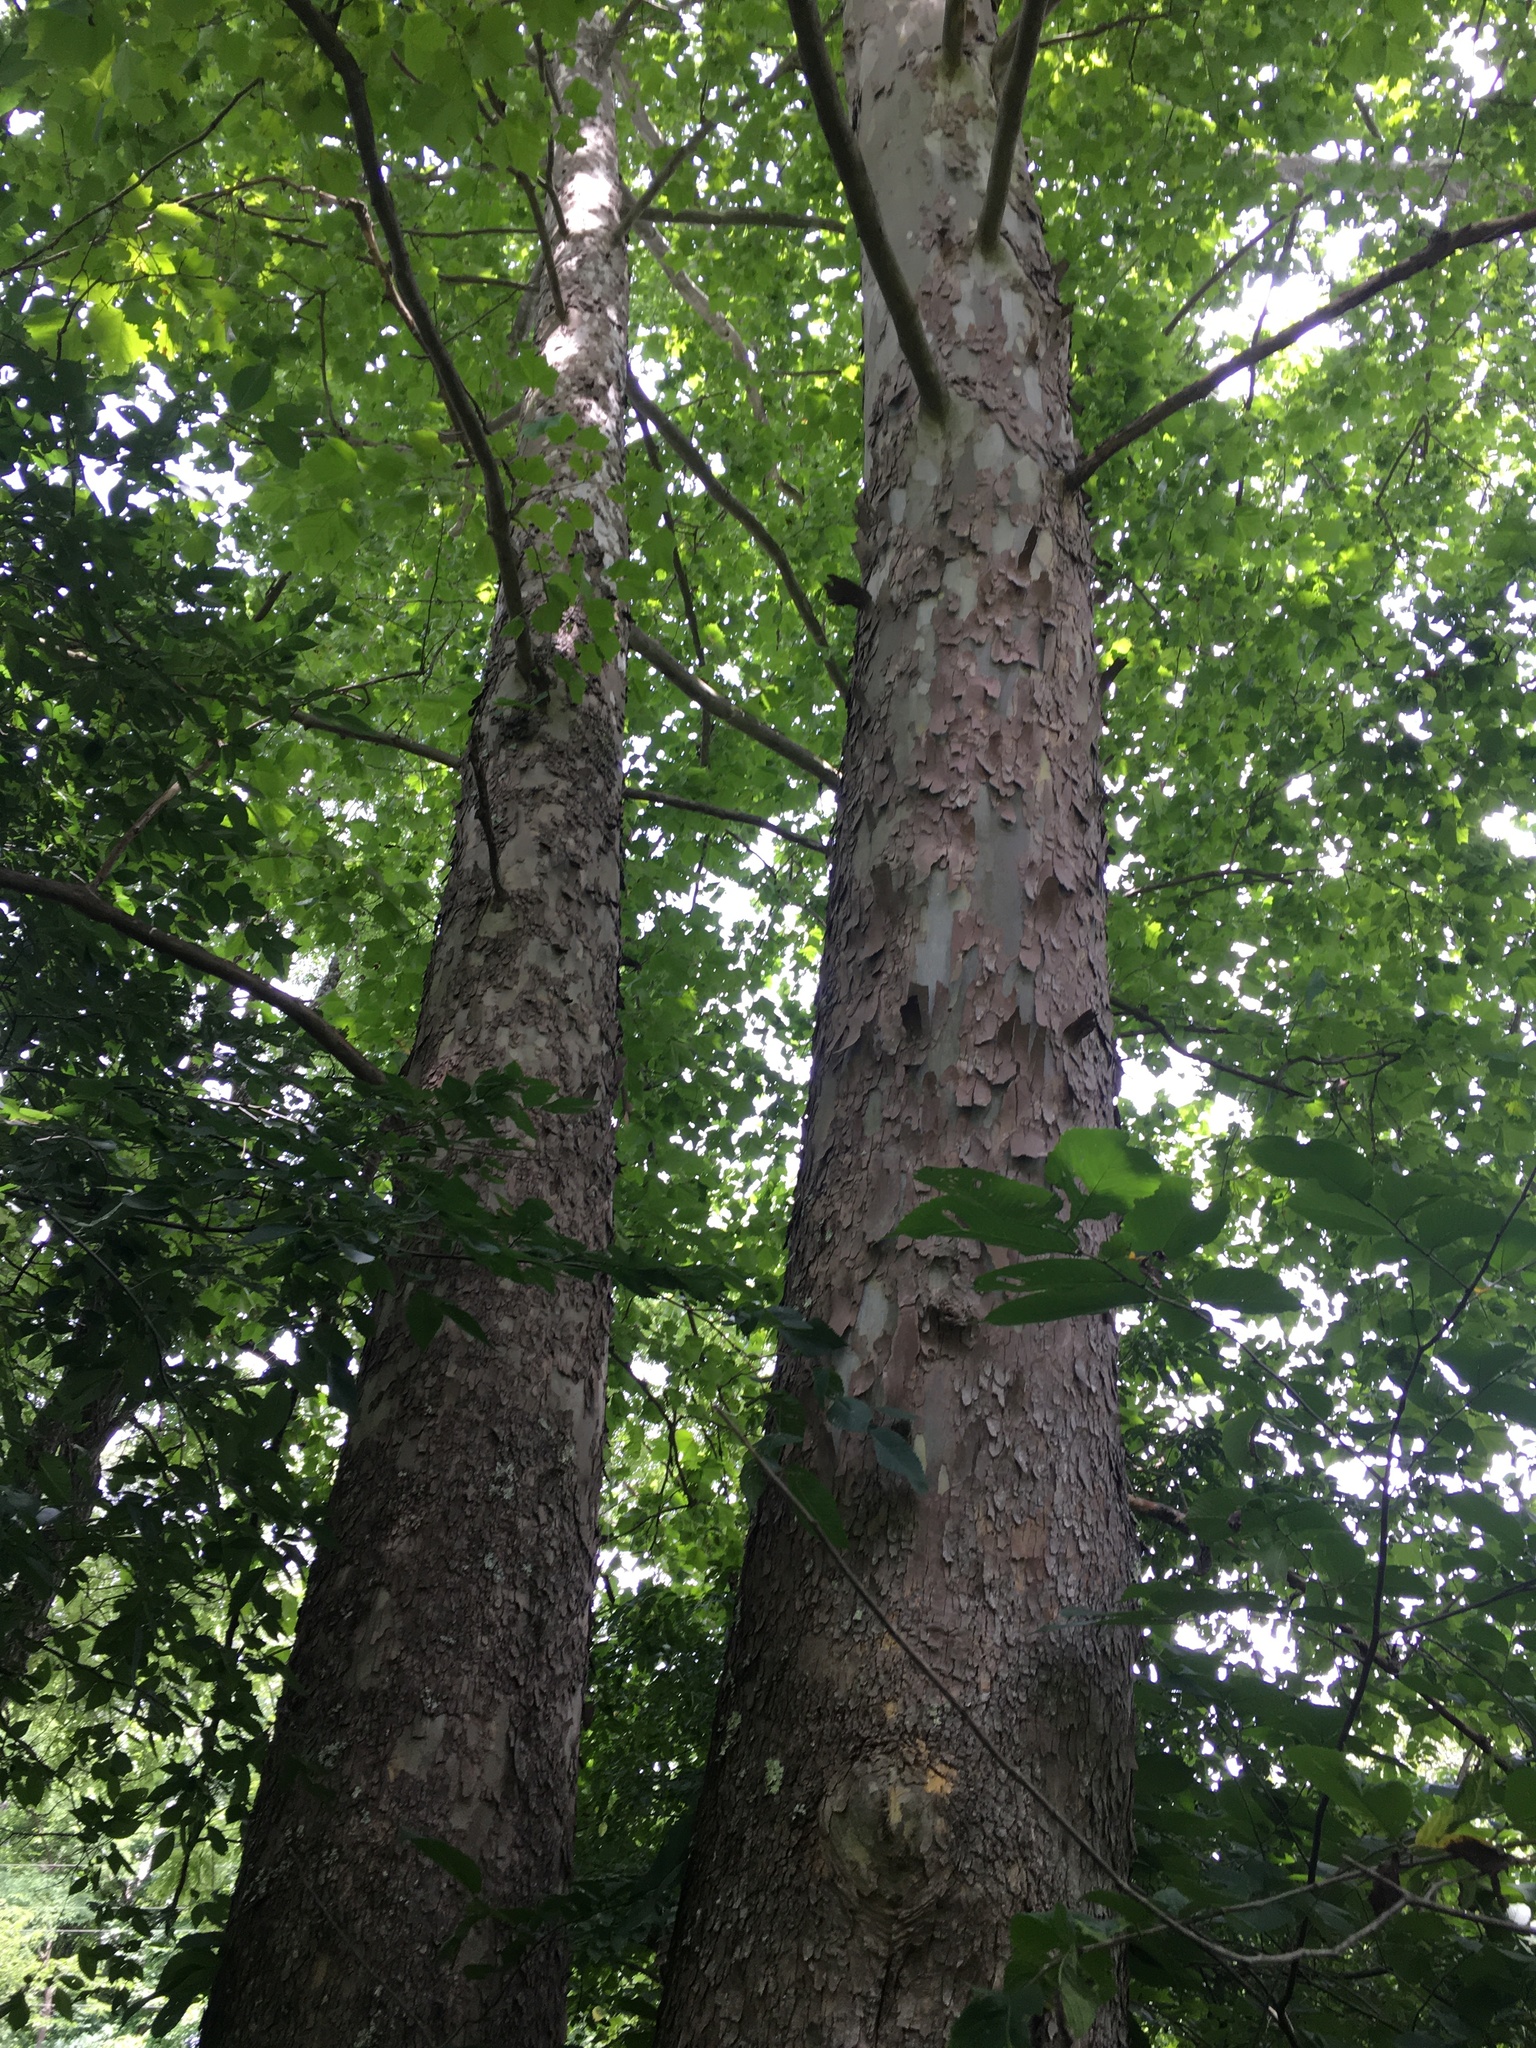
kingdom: Plantae
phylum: Tracheophyta
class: Magnoliopsida
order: Proteales
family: Platanaceae
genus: Platanus
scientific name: Platanus occidentalis
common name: American sycamore
